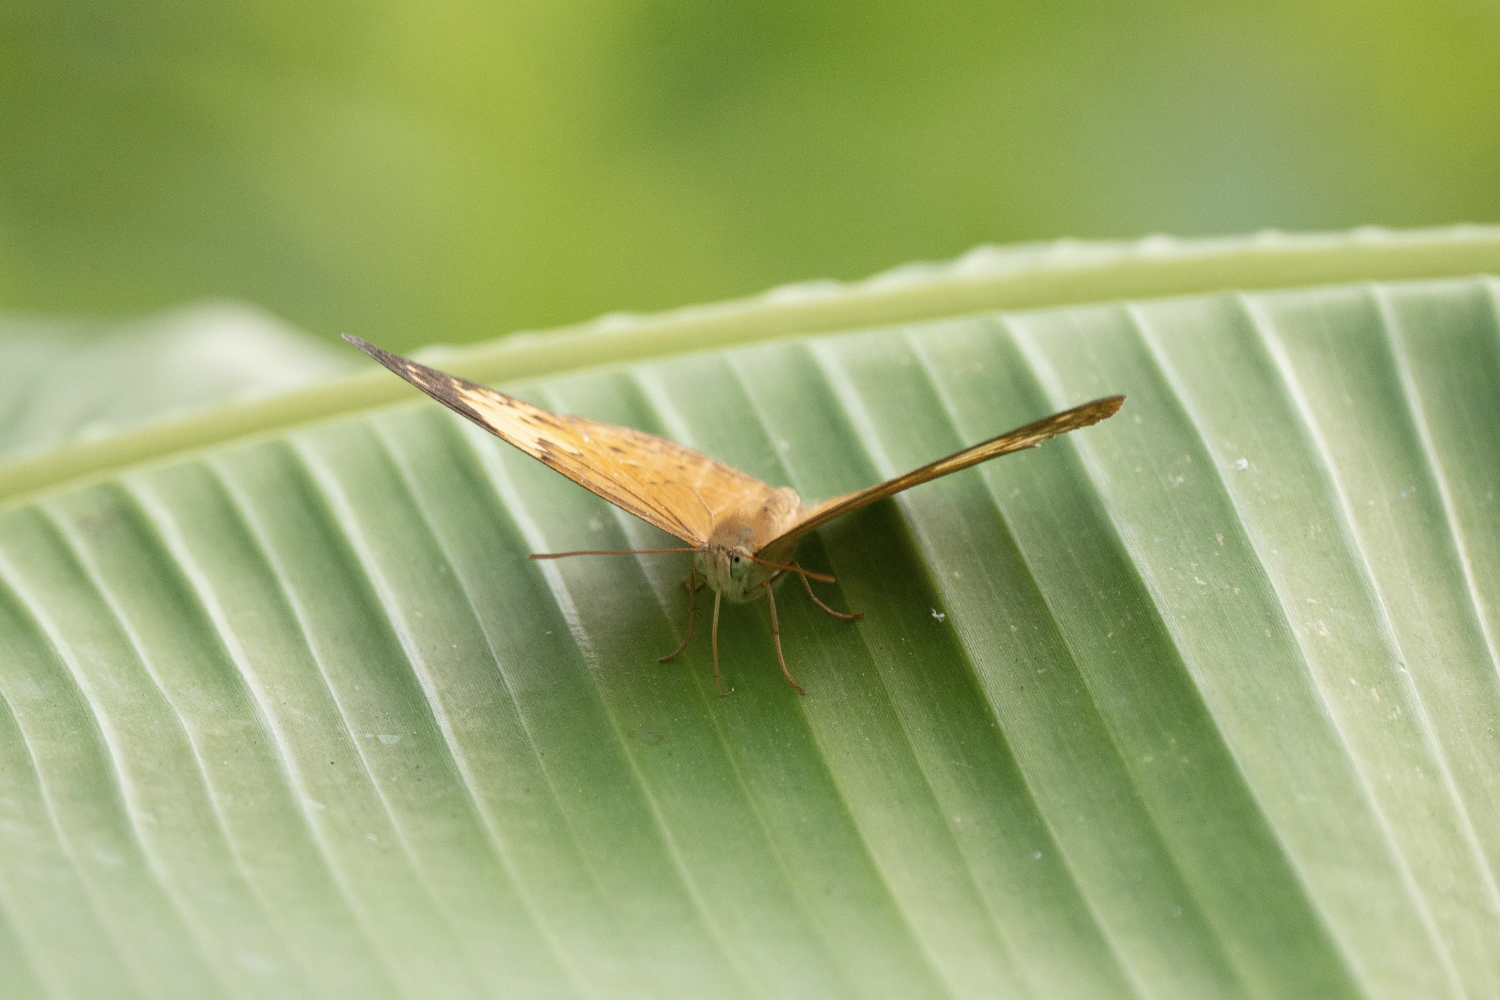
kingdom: Animalia
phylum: Arthropoda
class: Insecta
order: Lepidoptera
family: Nymphalidae
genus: Cupha
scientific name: Cupha erymanthis
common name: Rustic
